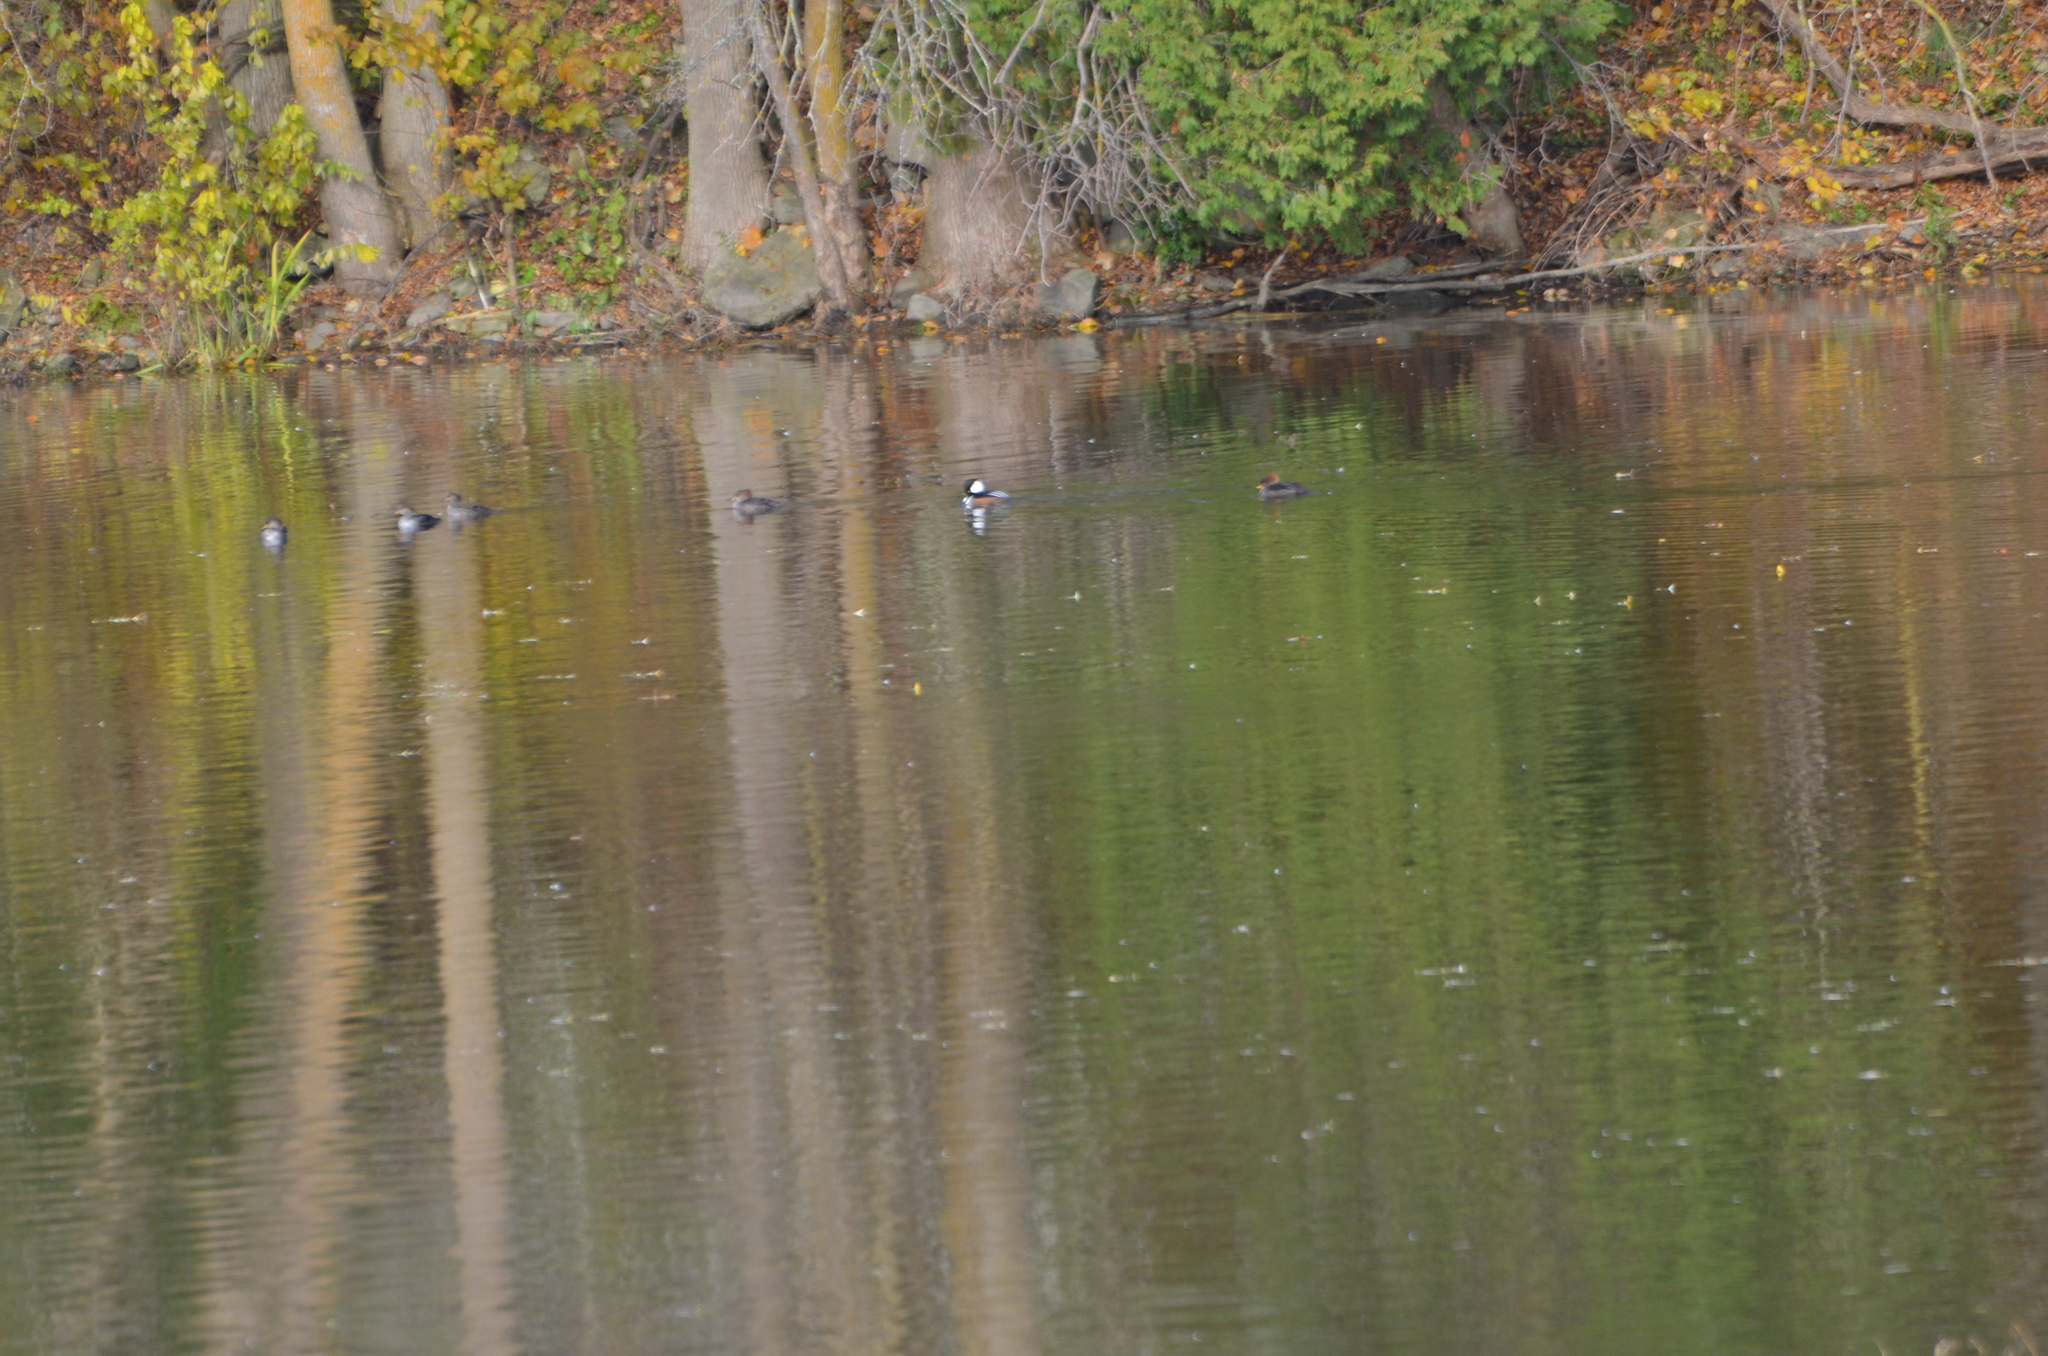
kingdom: Animalia
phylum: Chordata
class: Aves
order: Anseriformes
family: Anatidae
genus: Lophodytes
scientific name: Lophodytes cucullatus
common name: Hooded merganser
